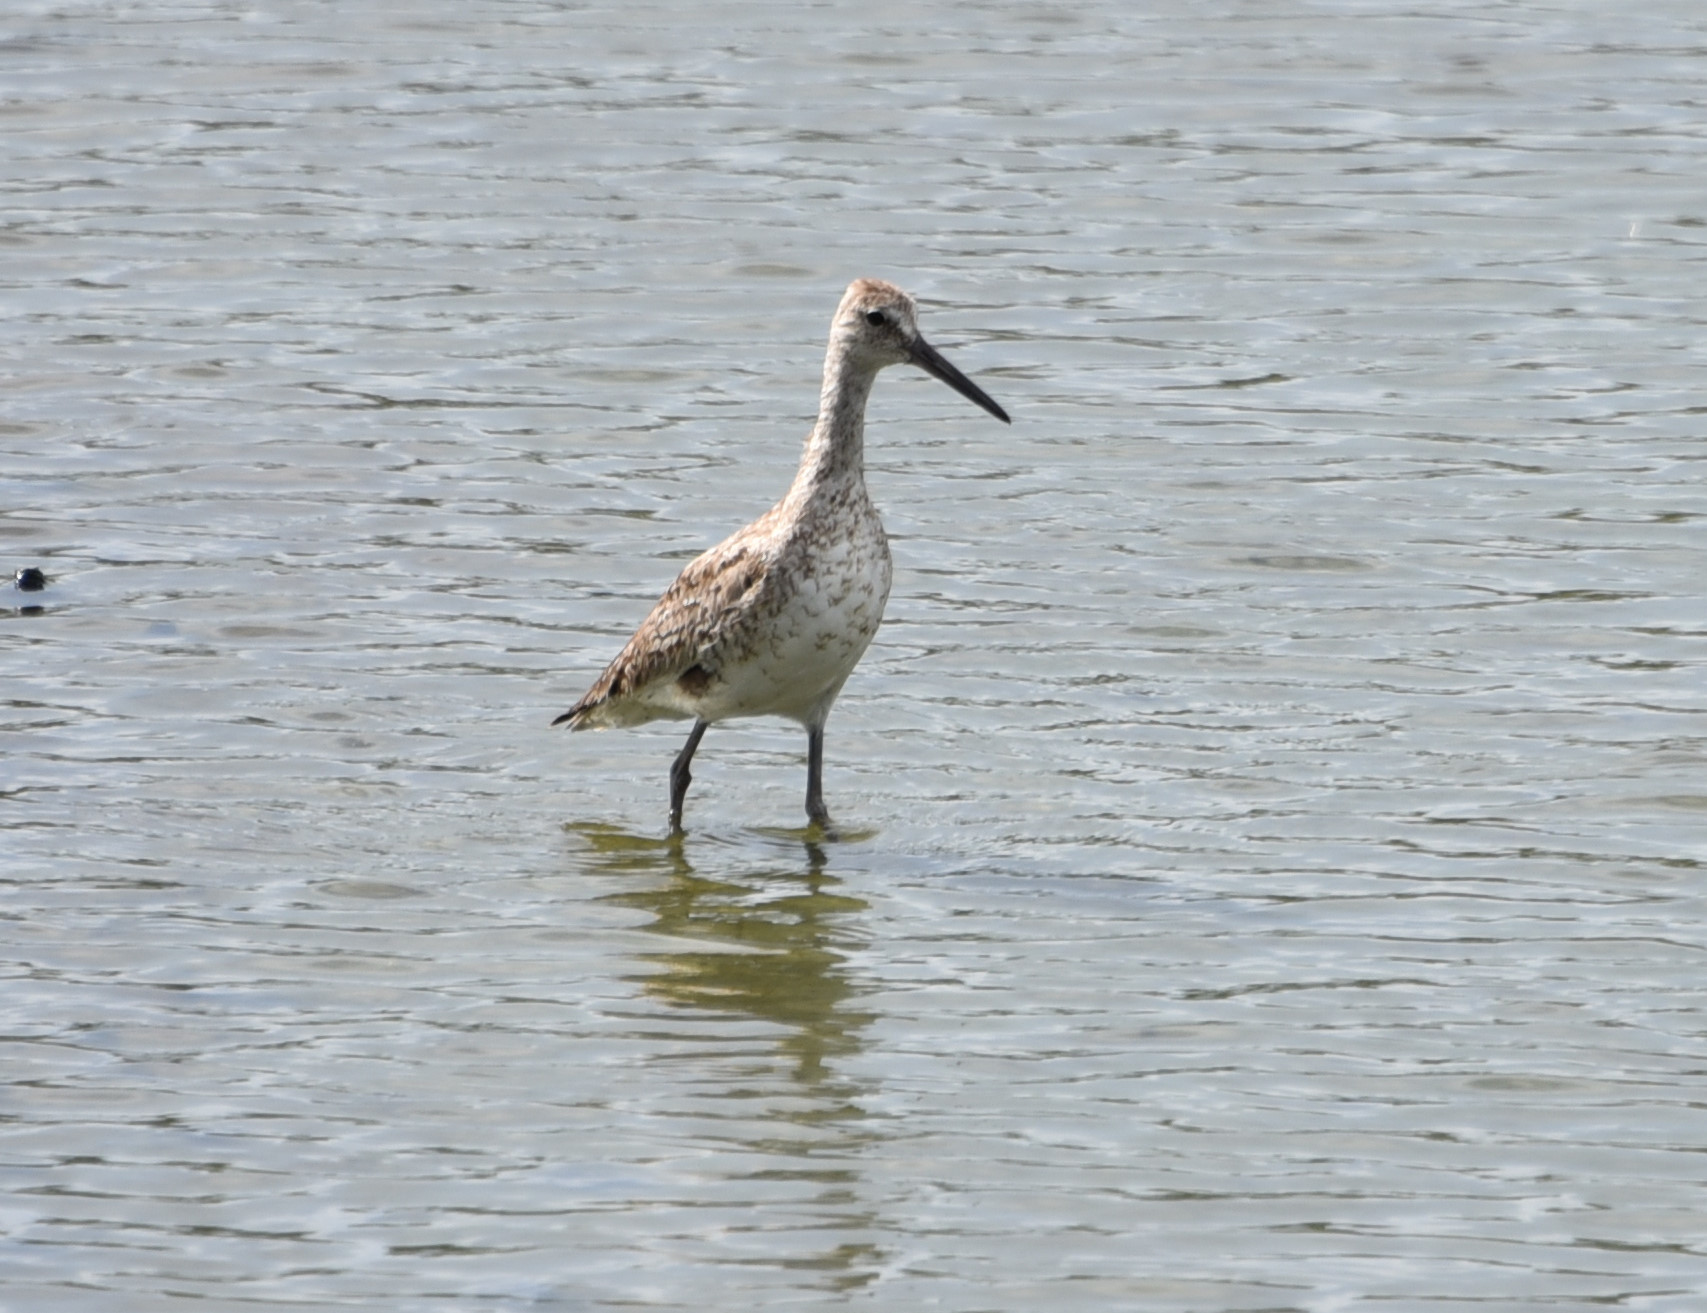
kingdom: Animalia
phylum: Chordata
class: Aves
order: Charadriiformes
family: Scolopacidae
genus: Tringa
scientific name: Tringa semipalmata
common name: Willet
